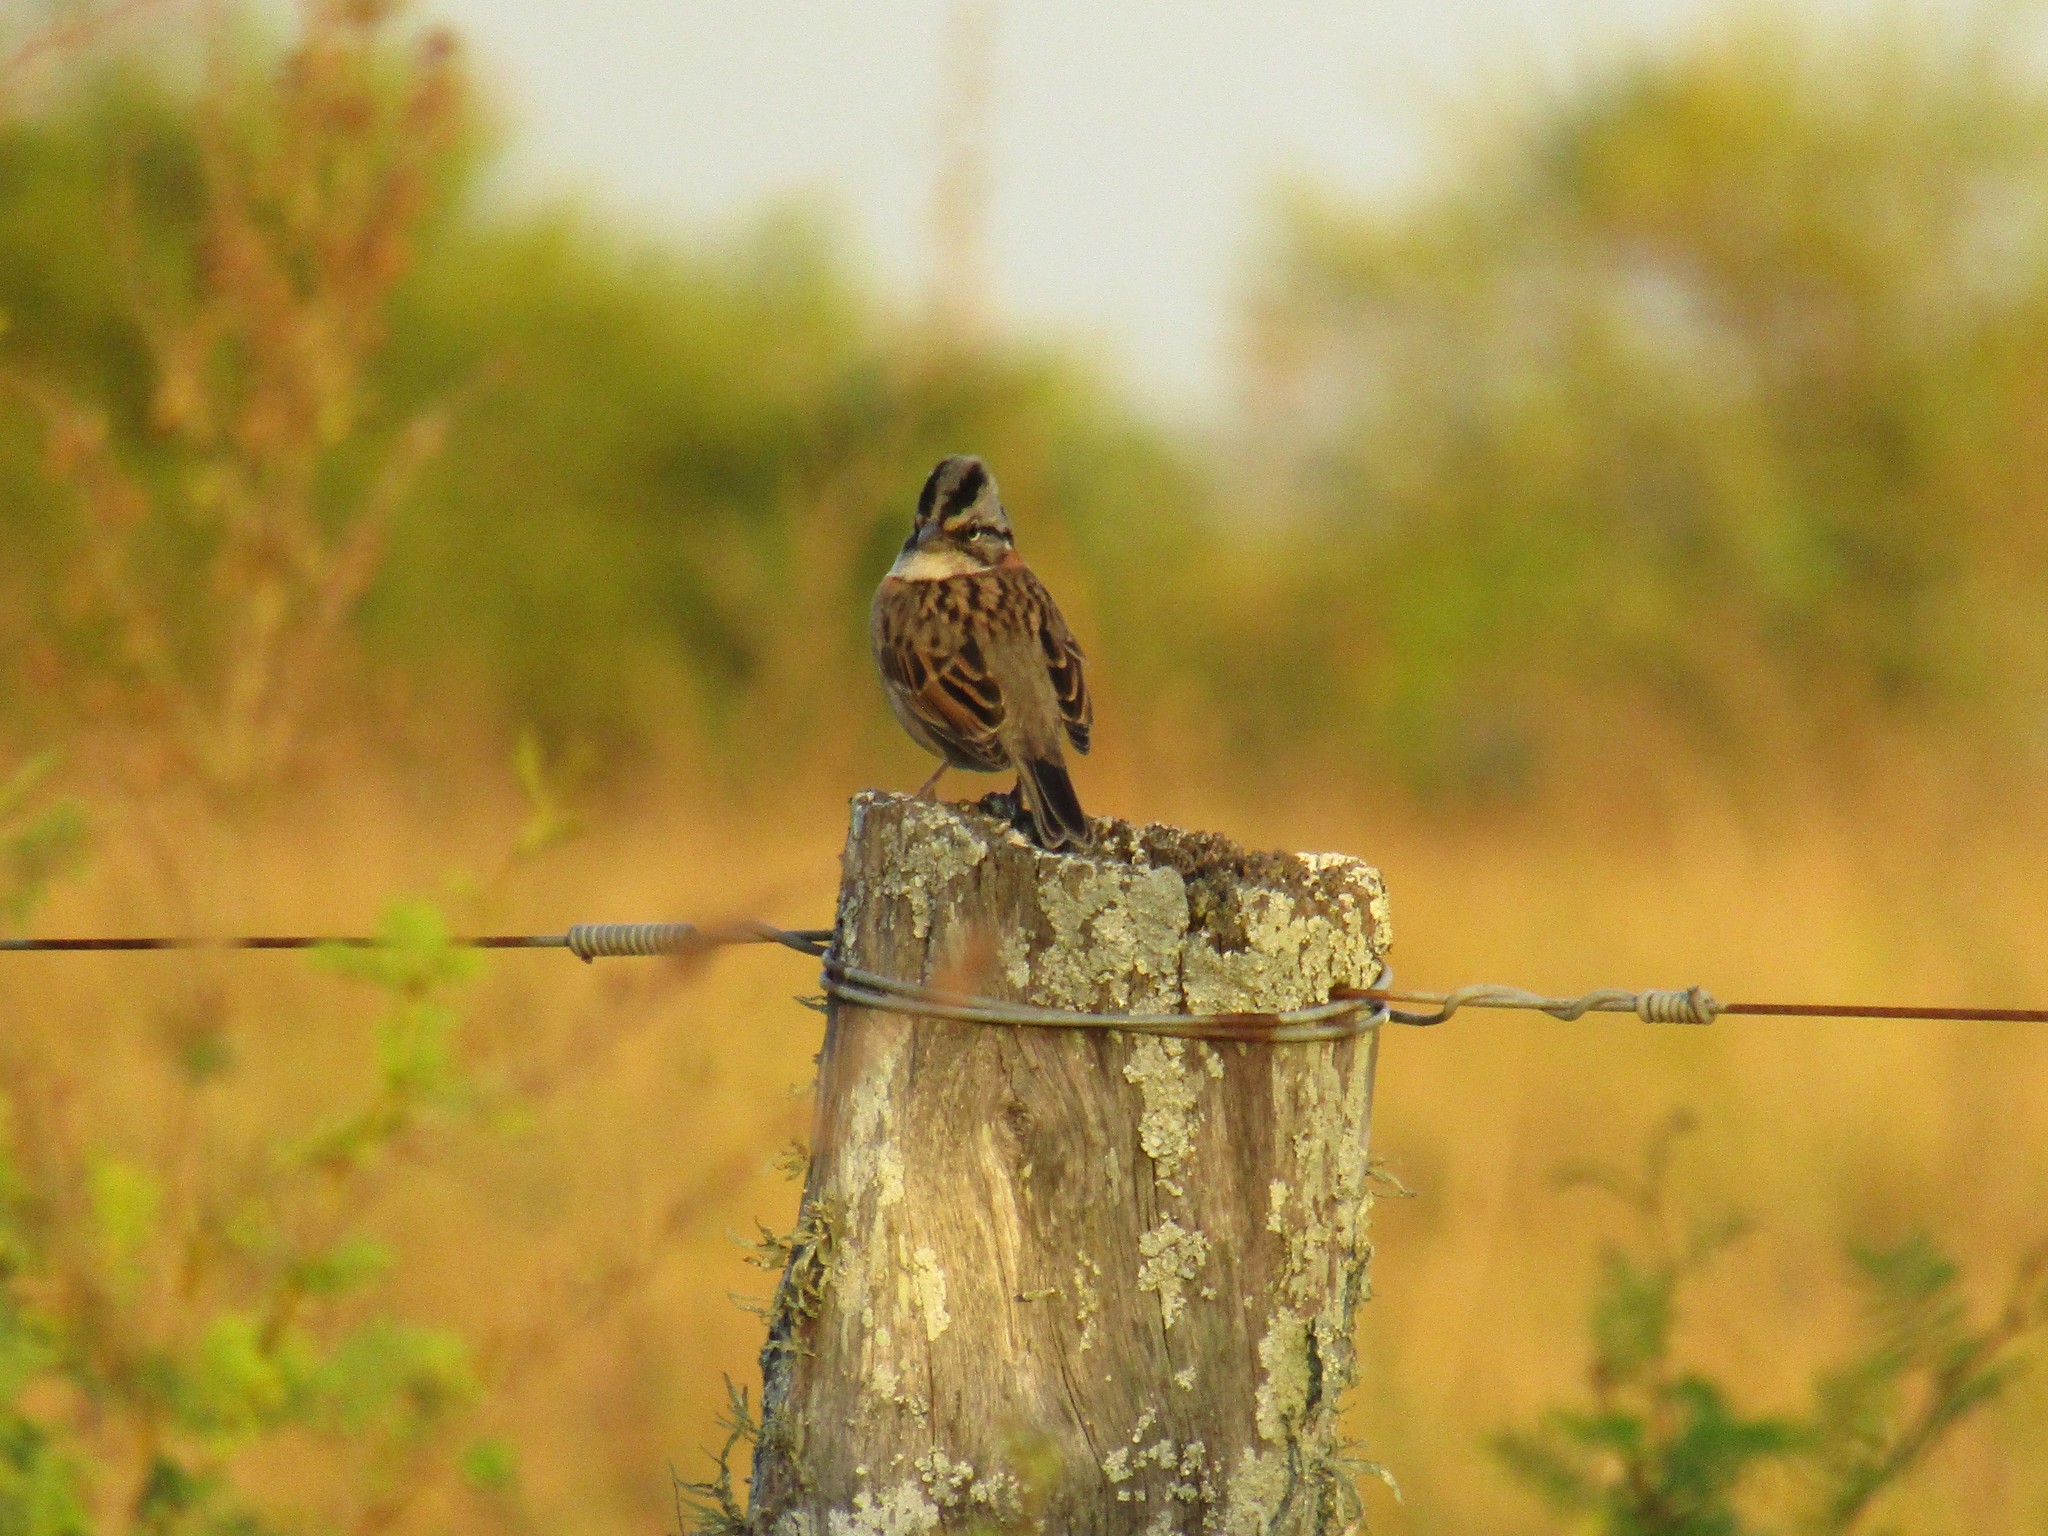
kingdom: Animalia
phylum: Chordata
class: Aves
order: Passeriformes
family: Passerellidae
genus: Zonotrichia
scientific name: Zonotrichia capensis
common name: Rufous-collared sparrow
